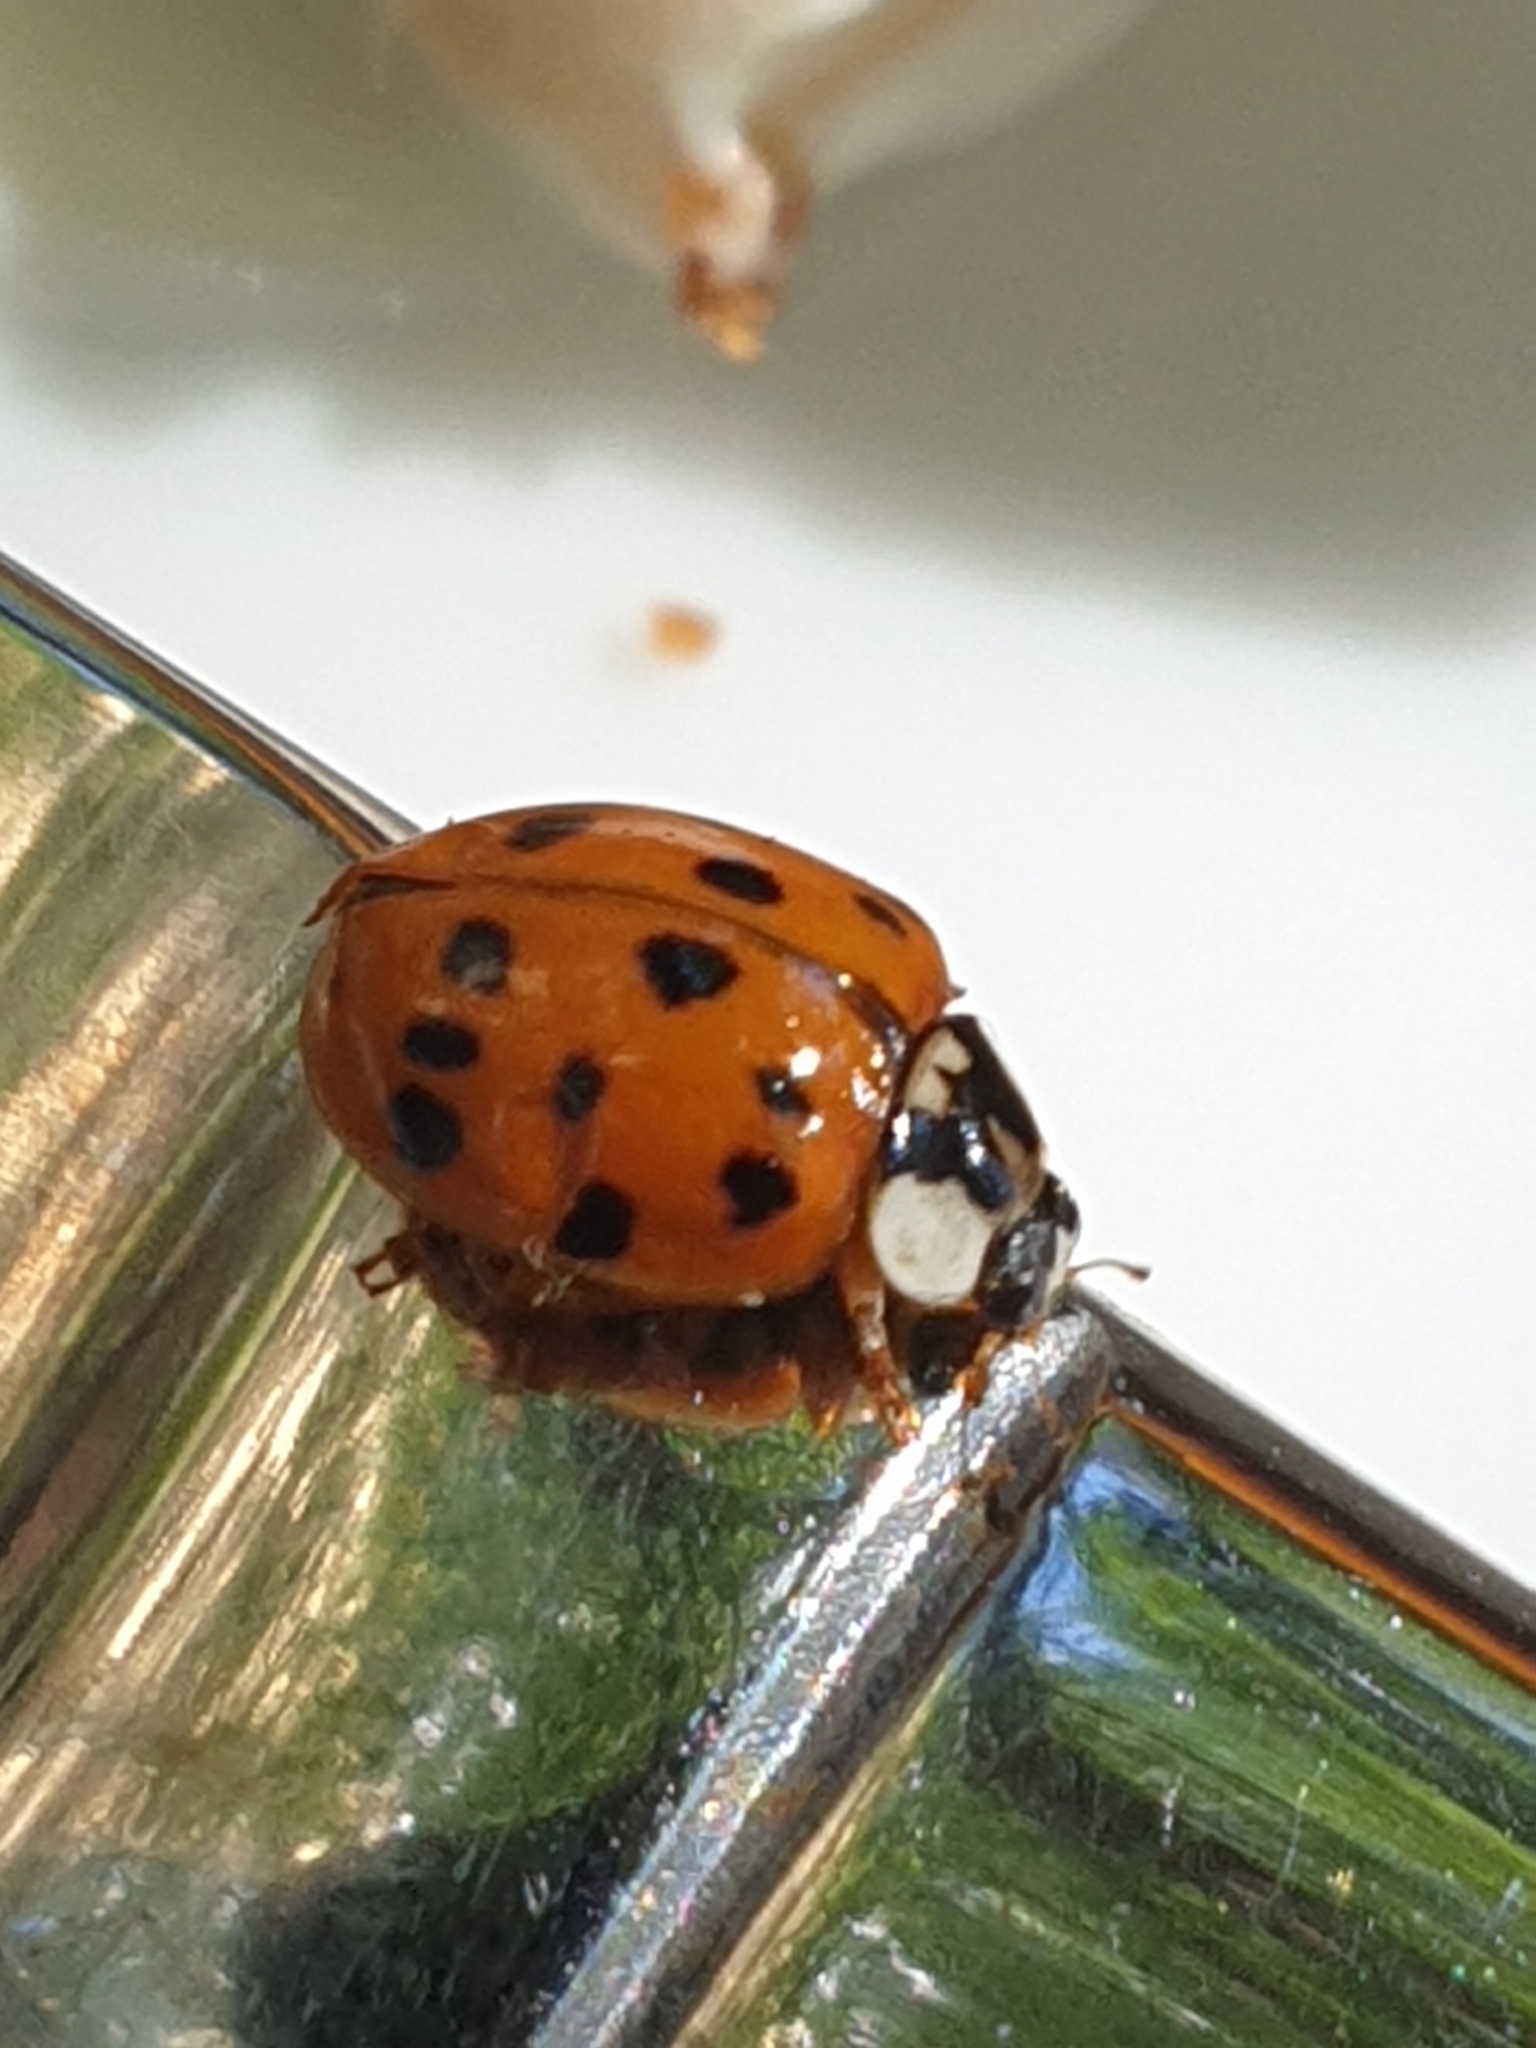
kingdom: Animalia
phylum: Arthropoda
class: Insecta
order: Coleoptera
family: Coccinellidae
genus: Harmonia
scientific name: Harmonia axyridis
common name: Harlequin ladybird
